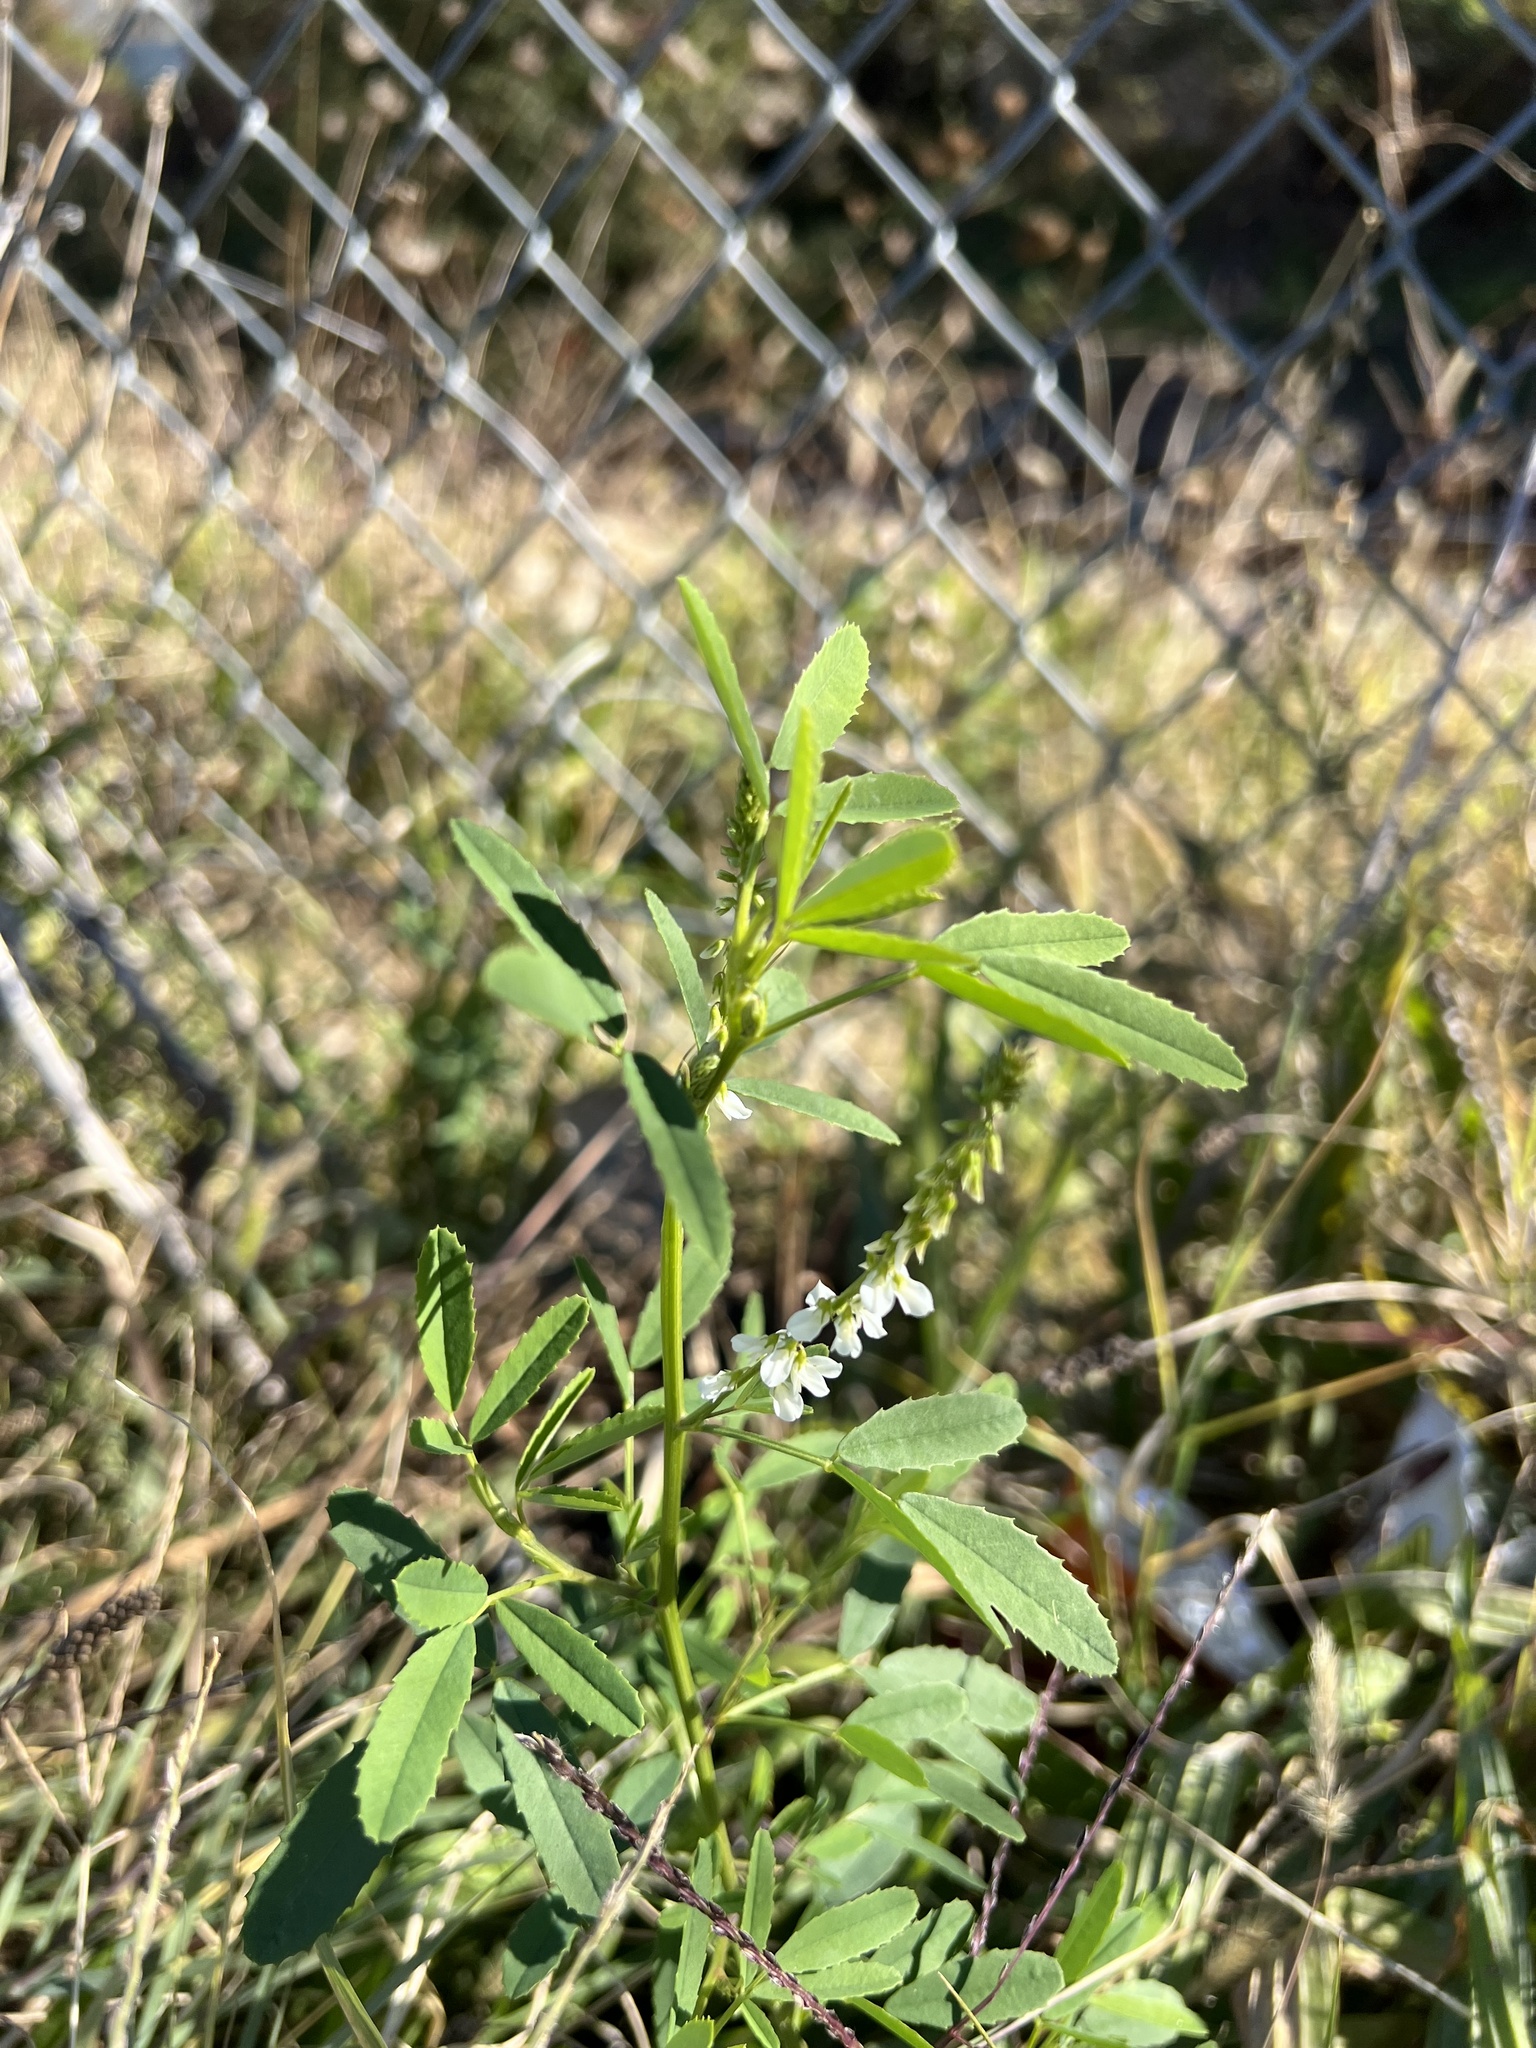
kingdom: Plantae
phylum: Tracheophyta
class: Magnoliopsida
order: Fabales
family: Fabaceae
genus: Melilotus
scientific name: Melilotus albus
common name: White melilot
